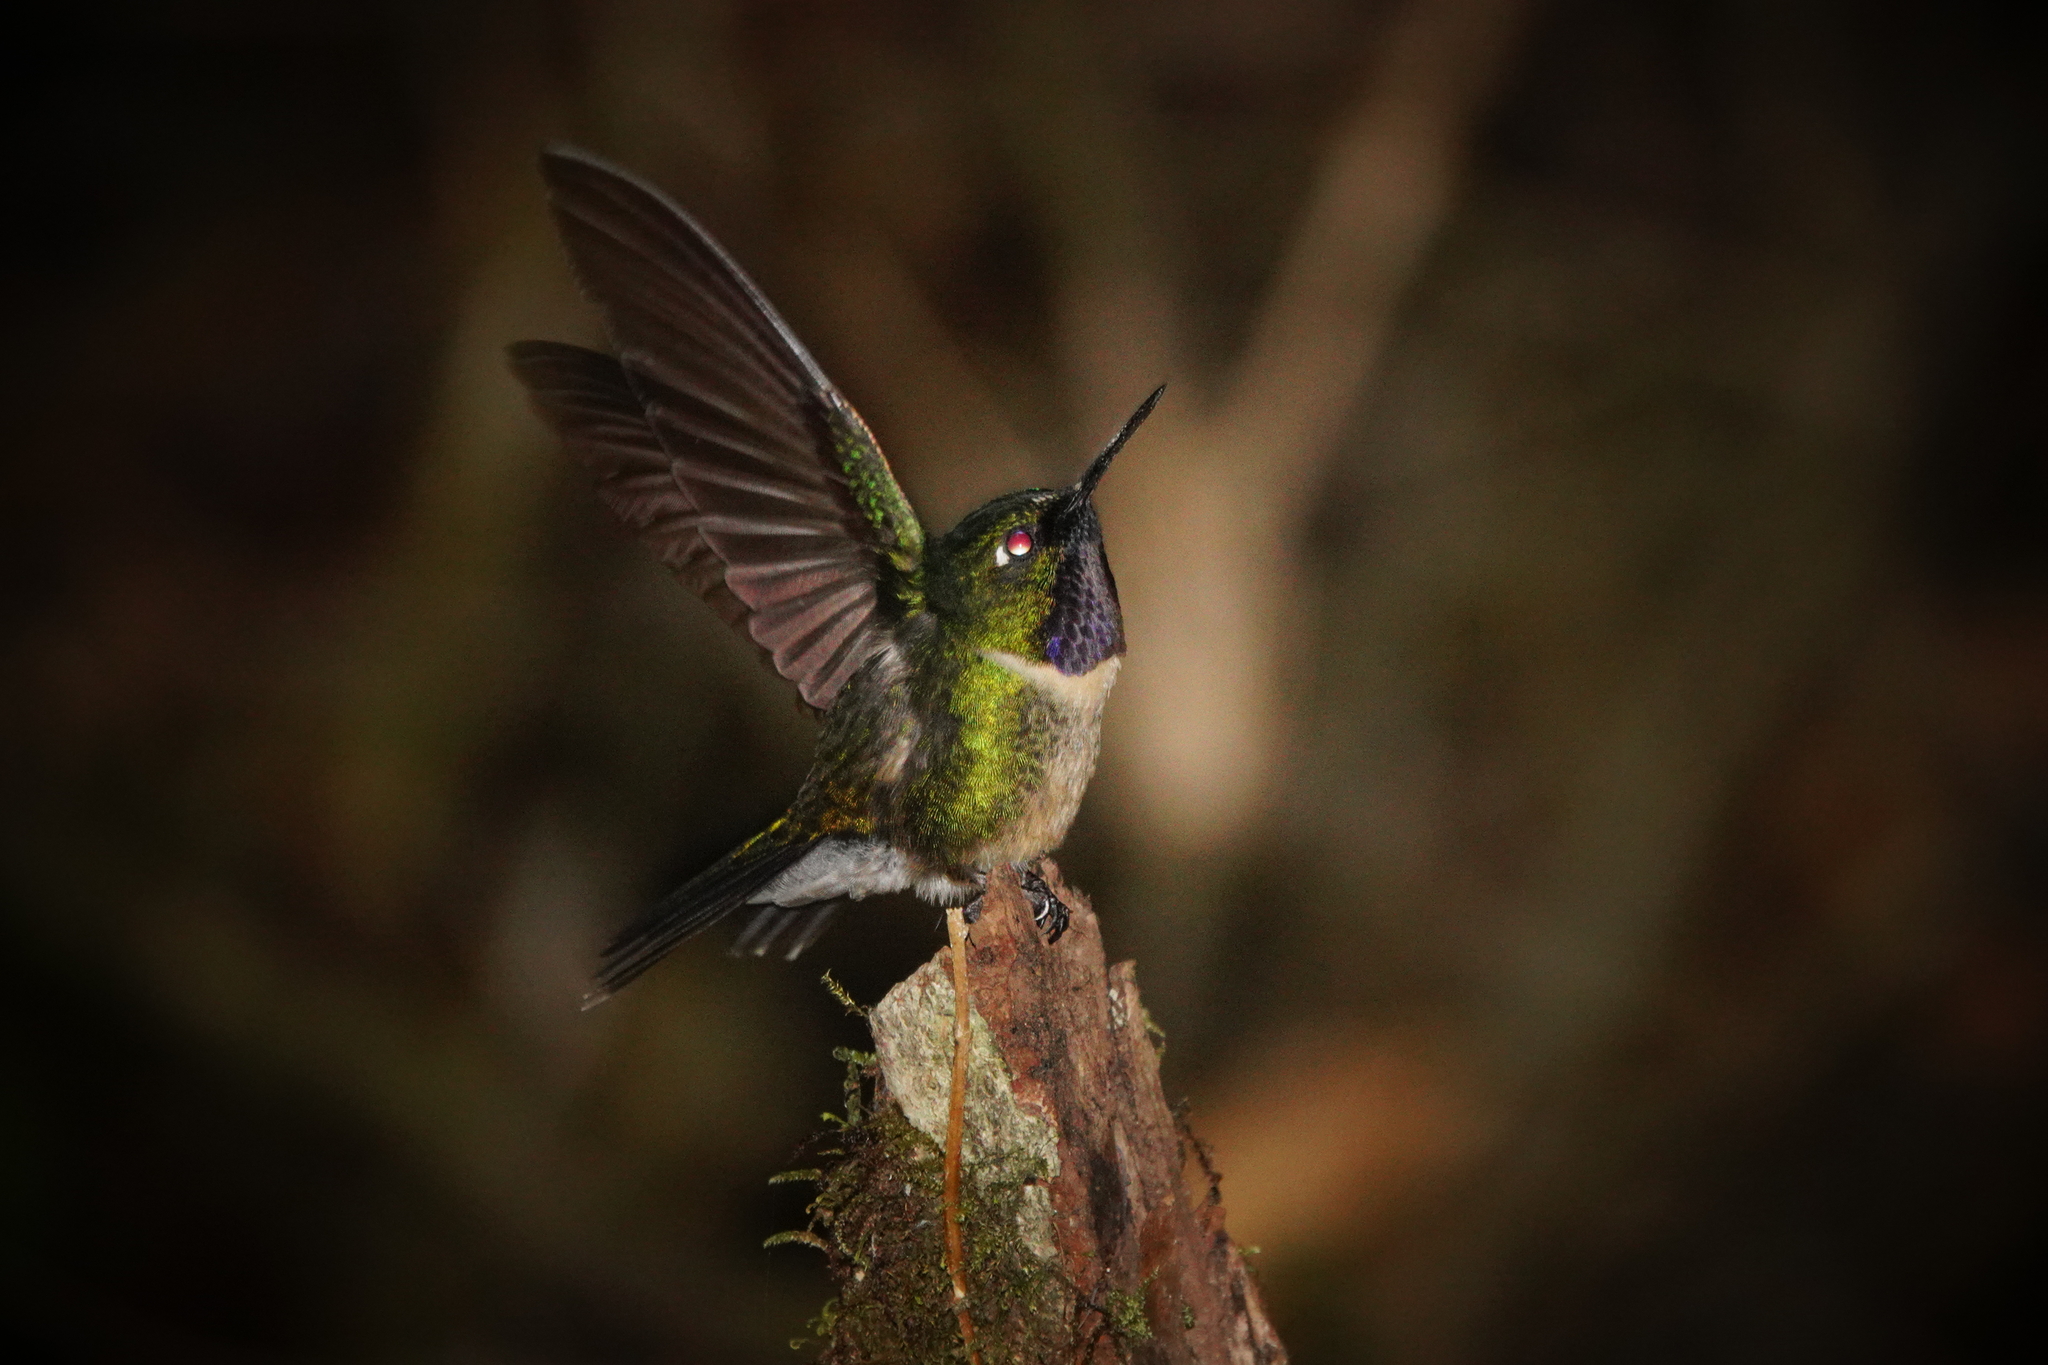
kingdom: Animalia
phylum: Chordata
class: Aves
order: Apodiformes
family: Trochilidae
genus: Heliangelus
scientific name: Heliangelus amethysticollis
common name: Amethyst-throated sunangel
